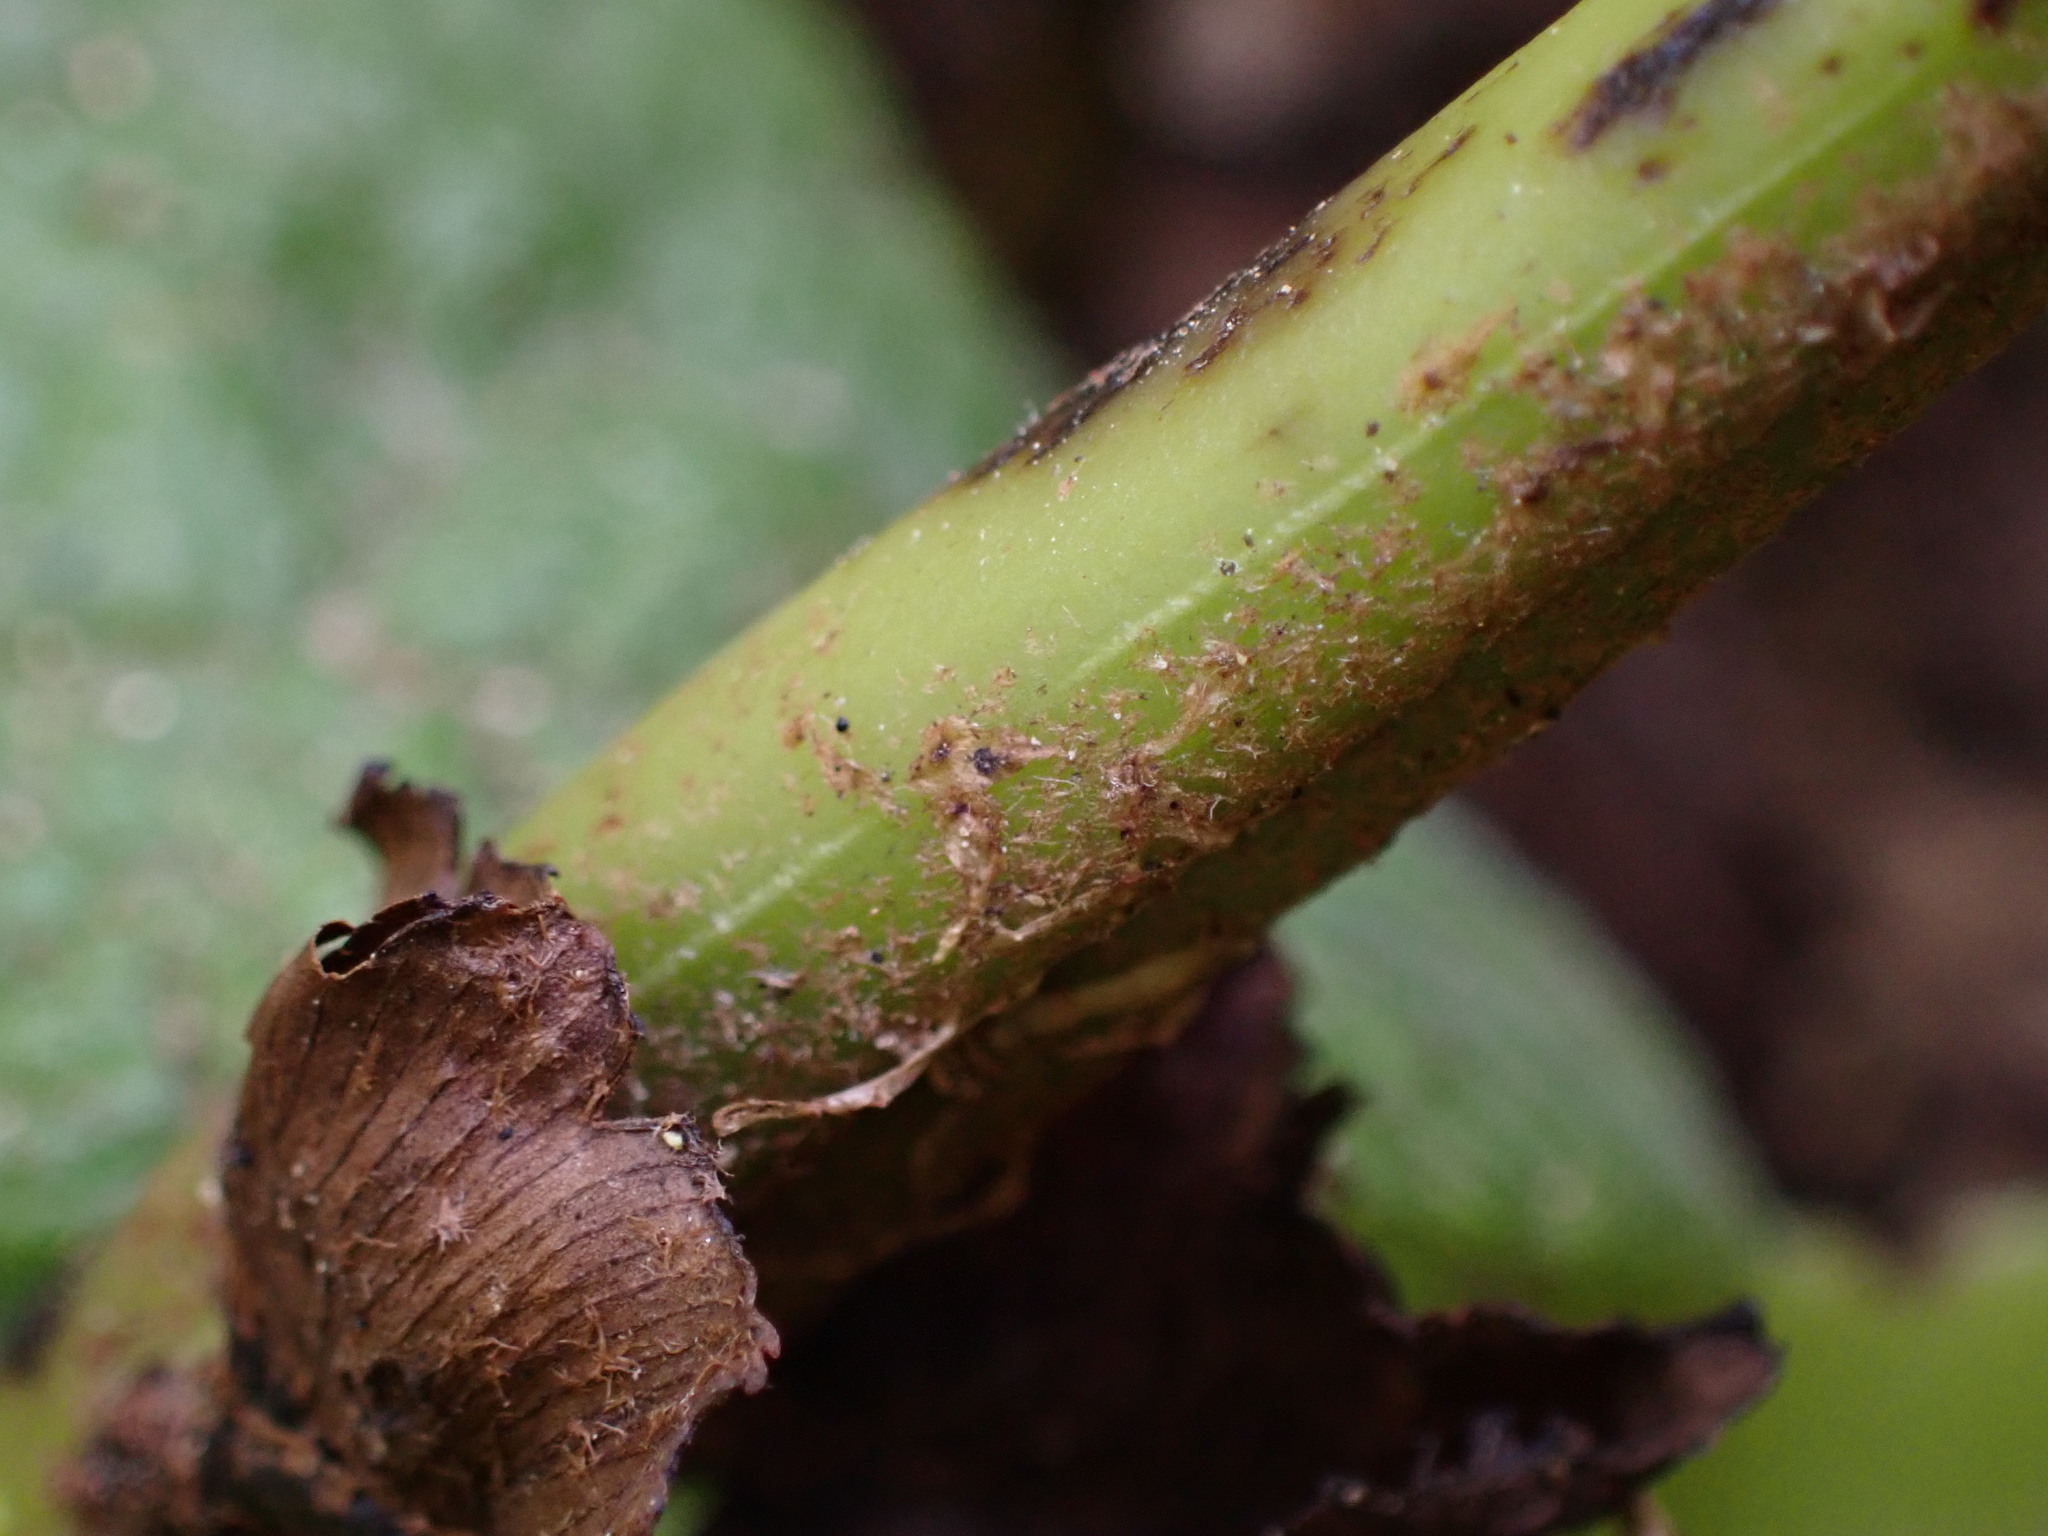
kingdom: Plantae
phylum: Tracheophyta
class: Polypodiopsida
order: Polypodiales
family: Blechnaceae
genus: Parablechnum
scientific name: Parablechnum novae-zelandiae
